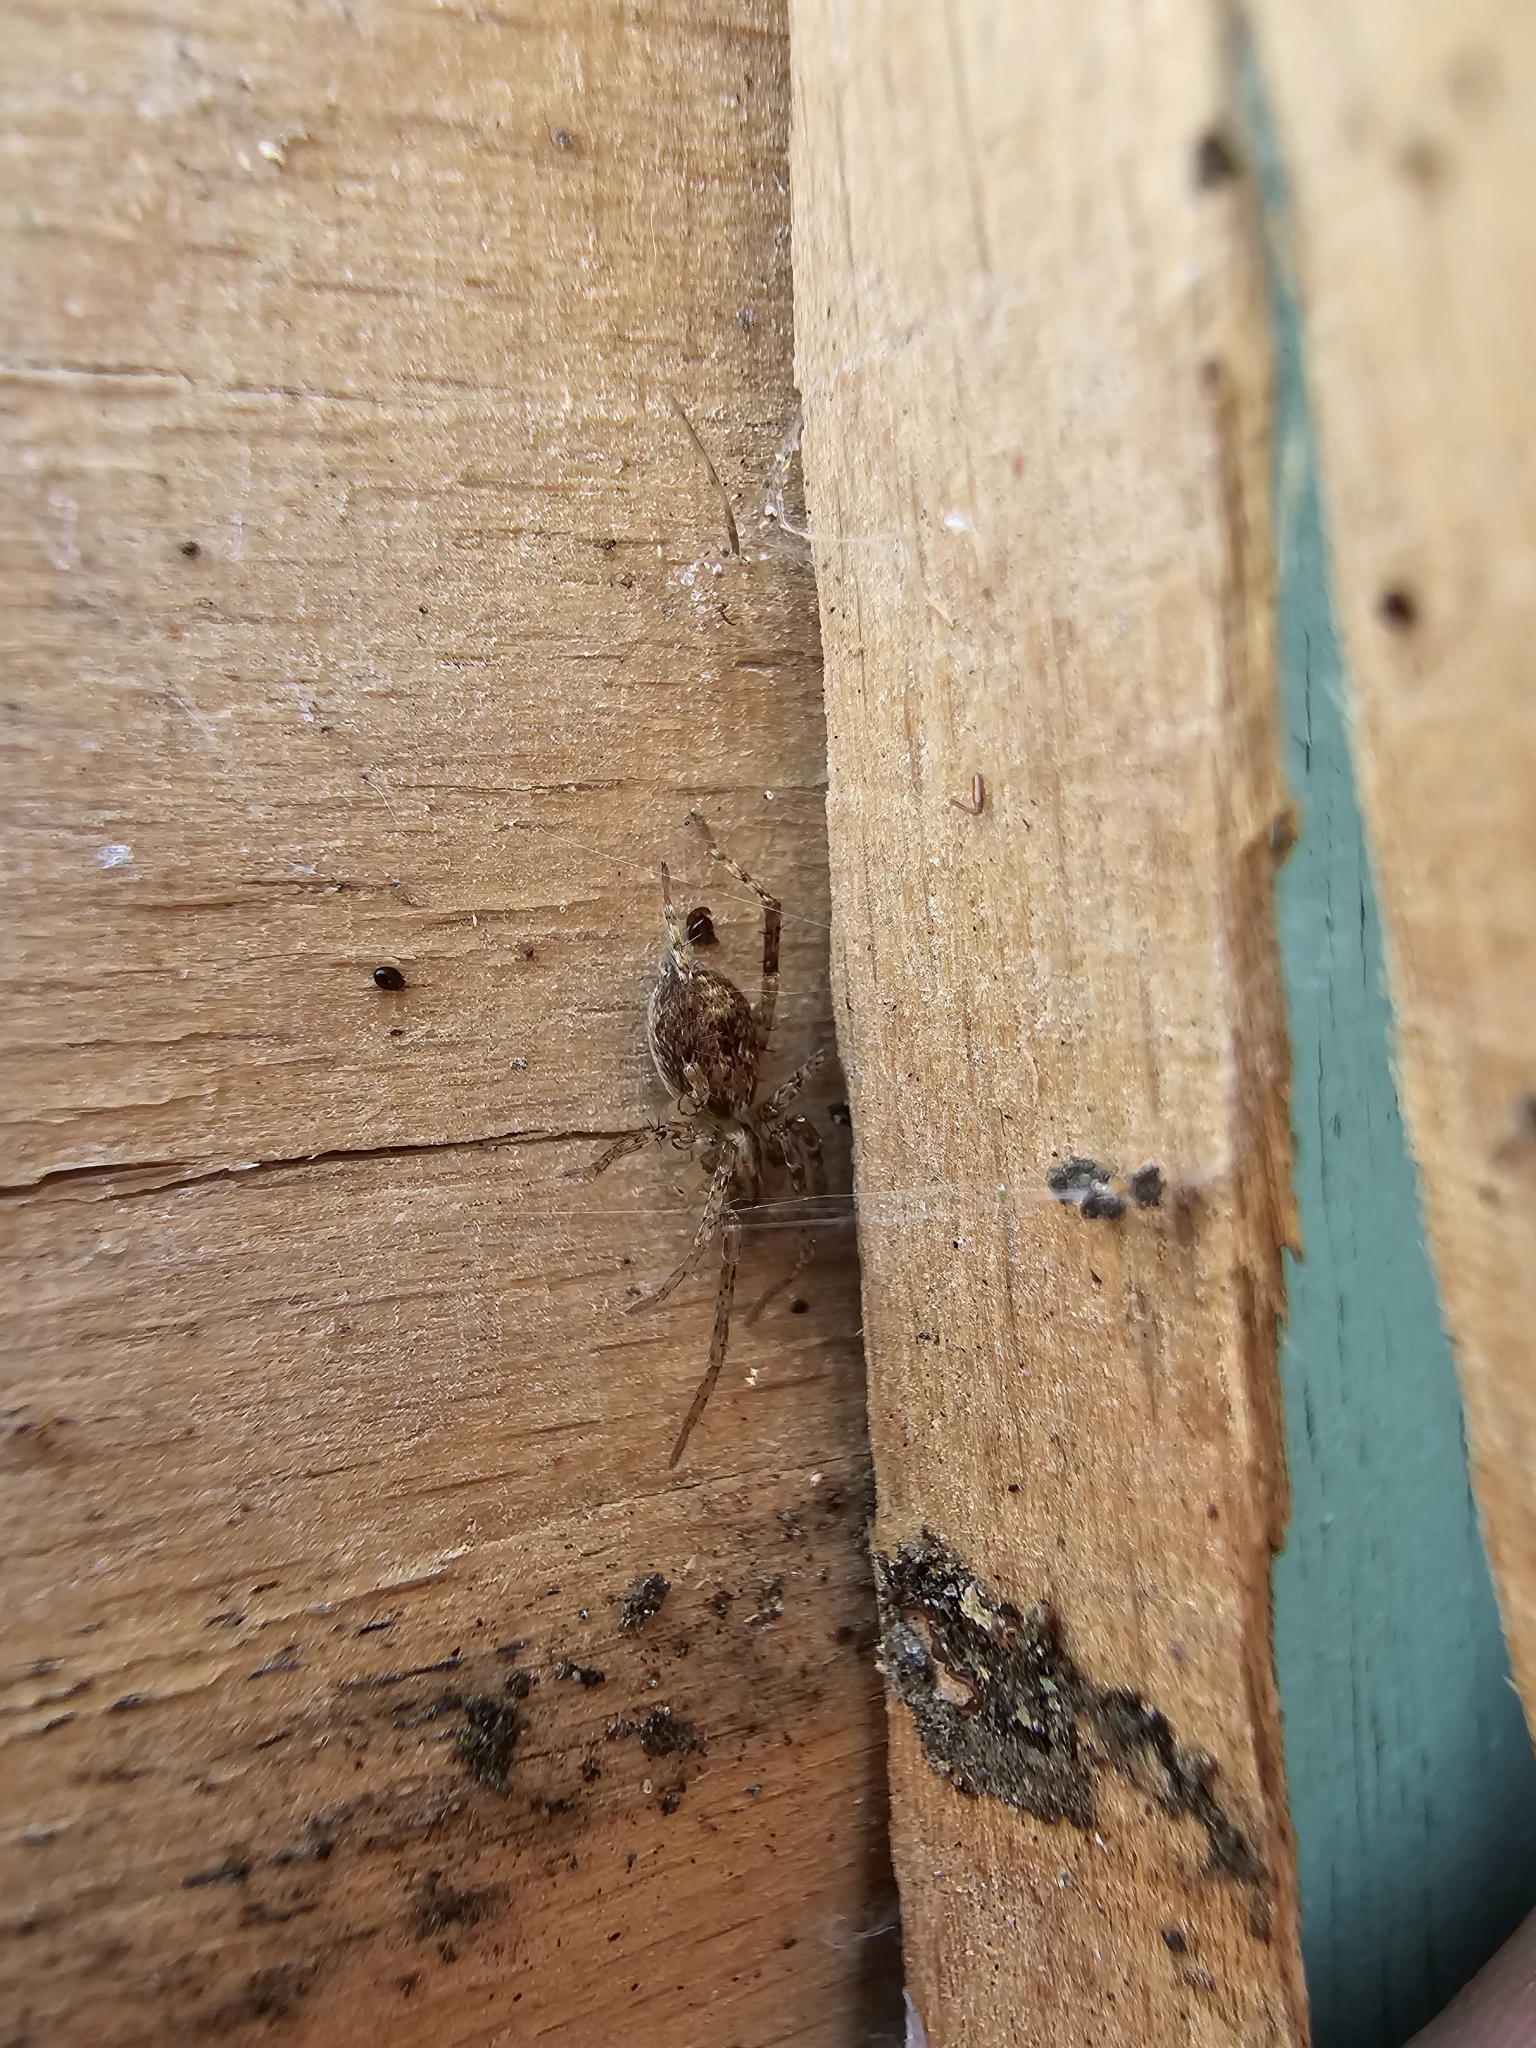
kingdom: Animalia
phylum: Arthropoda
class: Arachnida
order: Araneae
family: Anyphaenidae
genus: Anyphaena
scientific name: Anyphaena accentuata
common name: Buzzing spider
